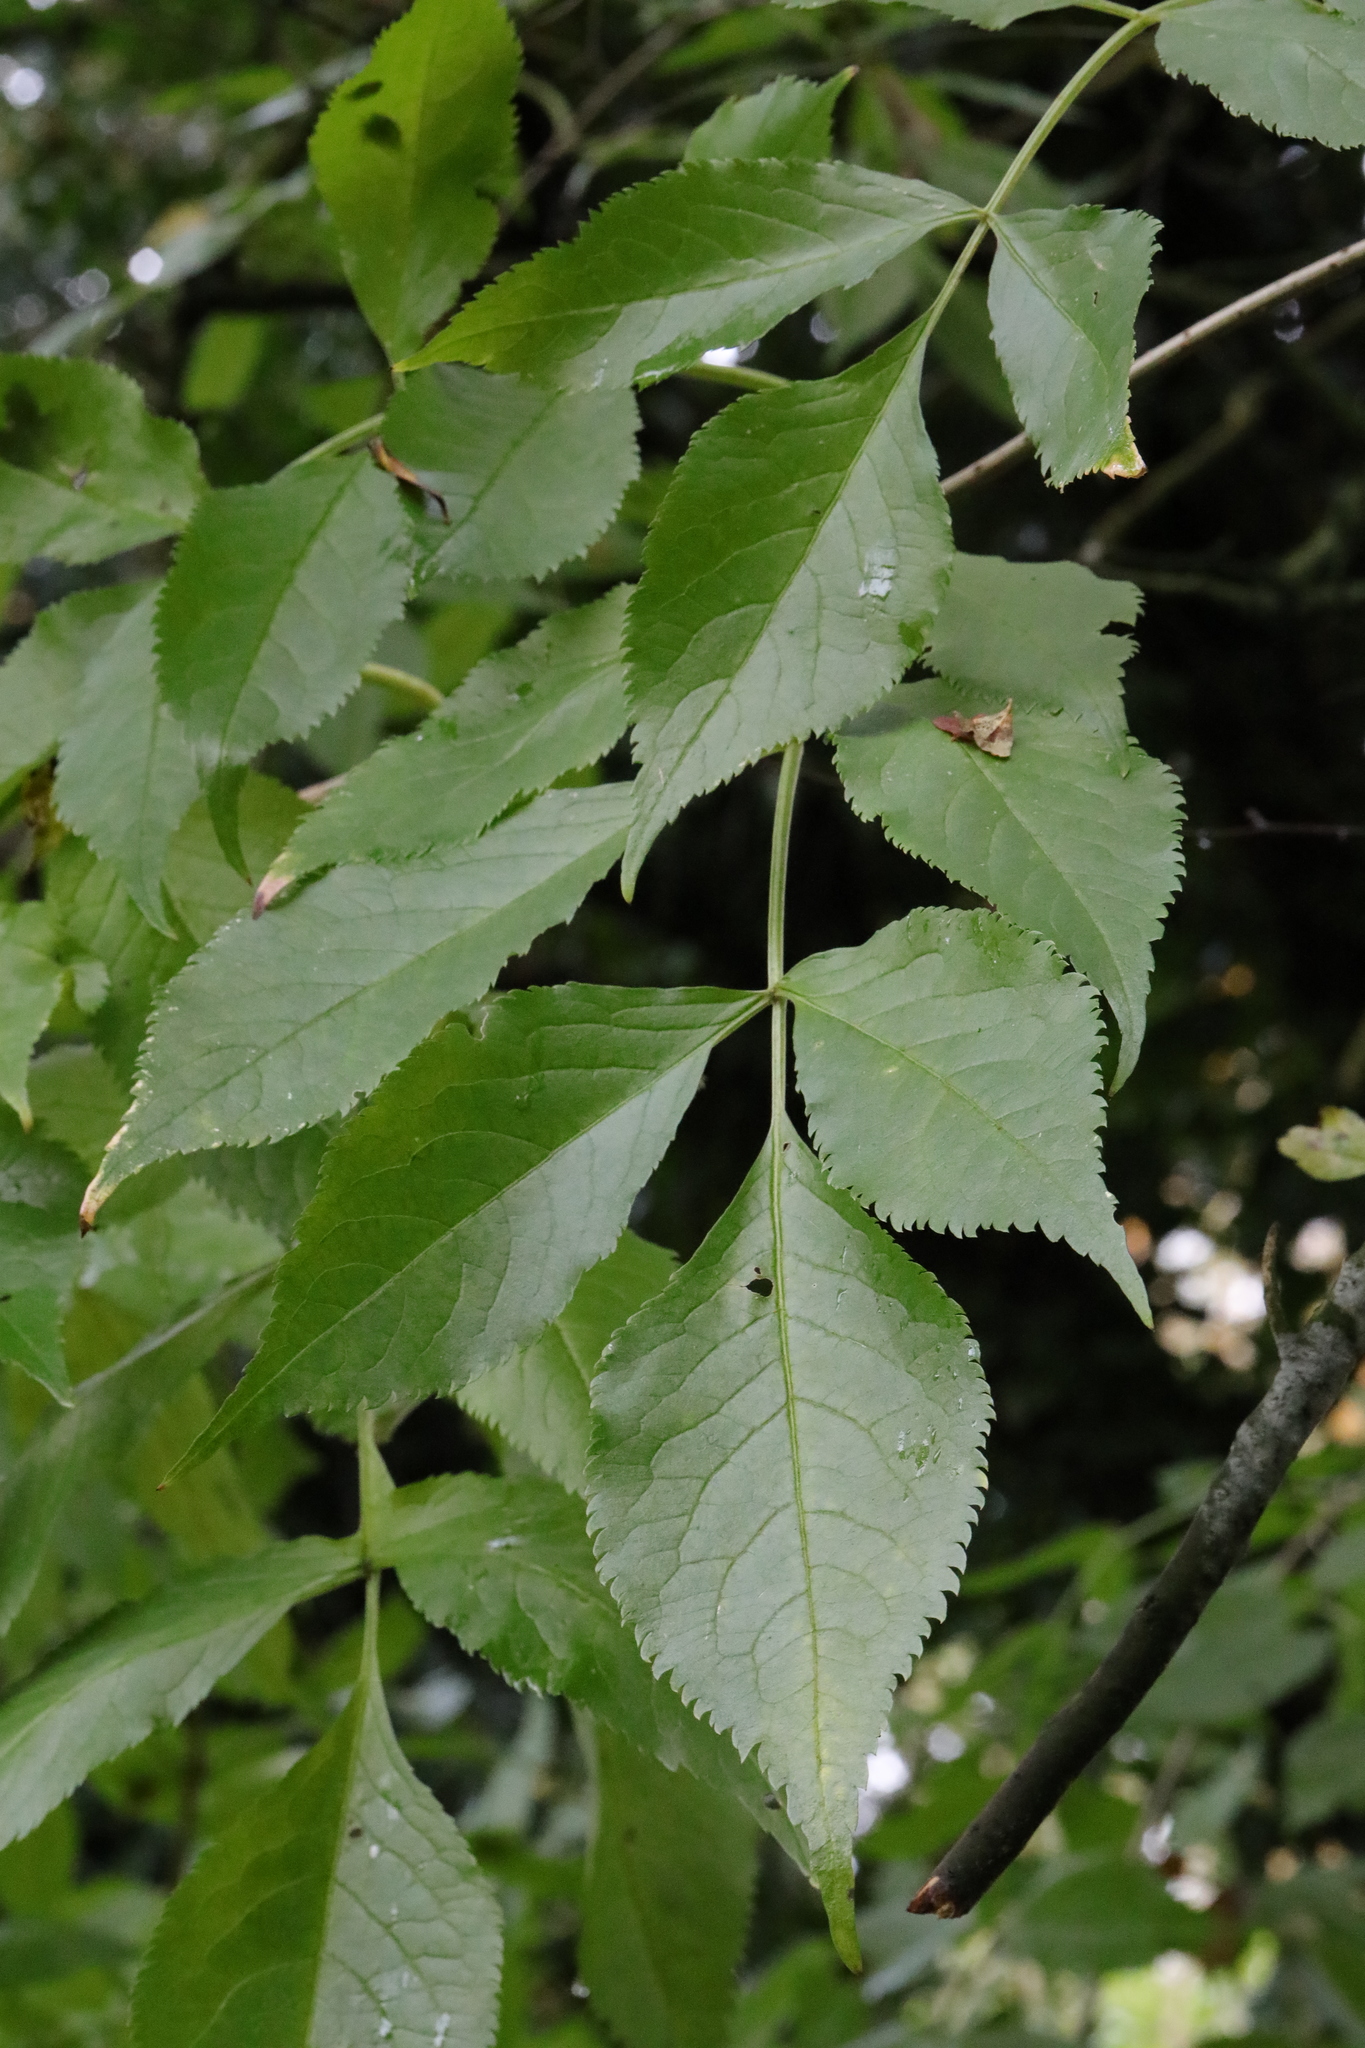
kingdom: Plantae
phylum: Tracheophyta
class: Magnoliopsida
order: Dipsacales
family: Viburnaceae
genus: Sambucus
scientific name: Sambucus nigra
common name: Elder
